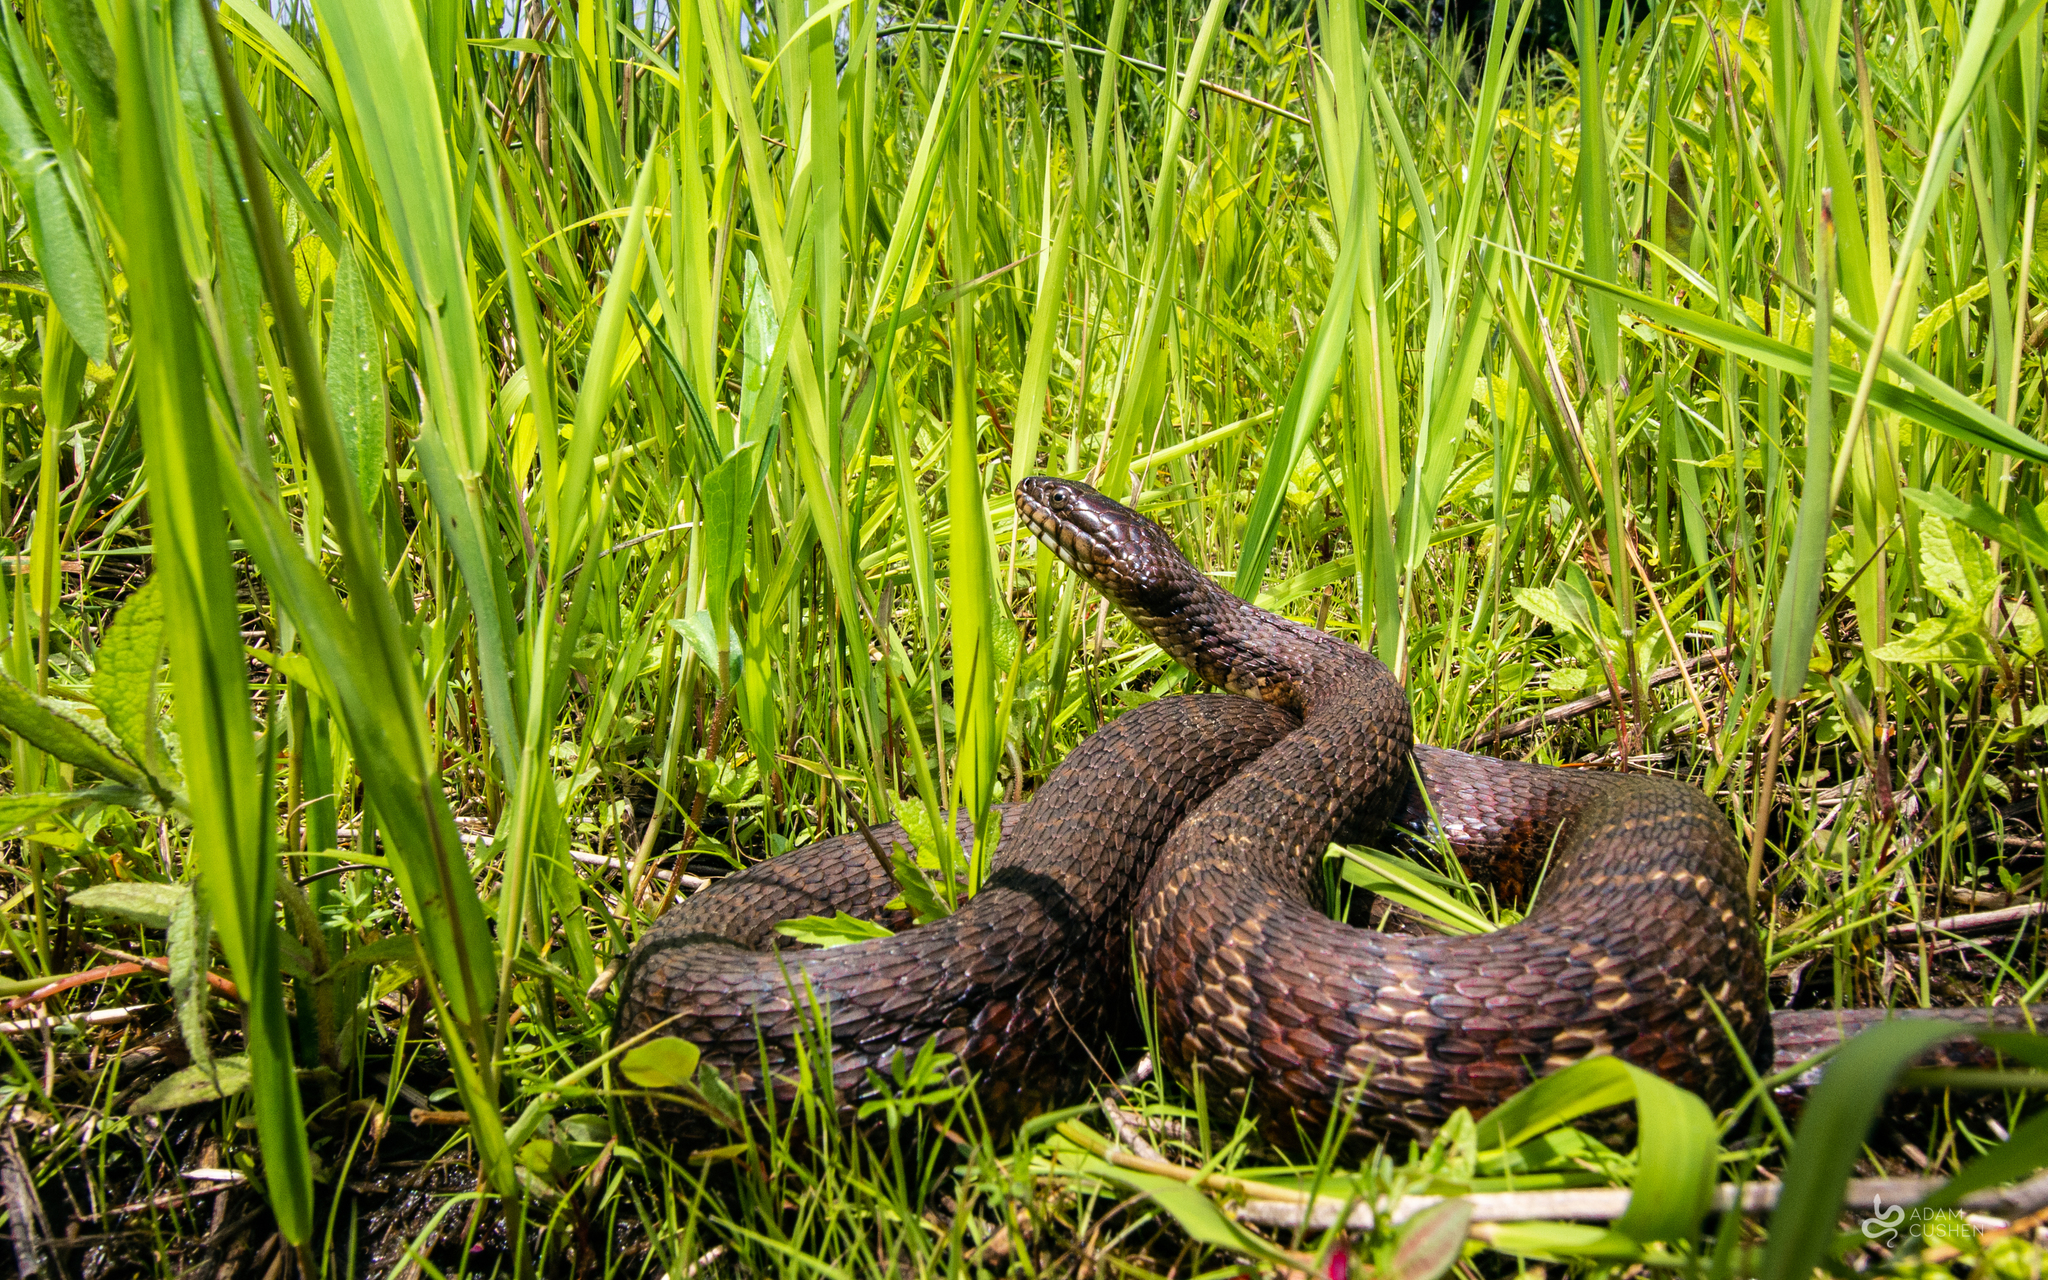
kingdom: Animalia
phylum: Chordata
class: Squamata
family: Colubridae
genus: Nerodia
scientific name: Nerodia sipedon
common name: Northern water snake
